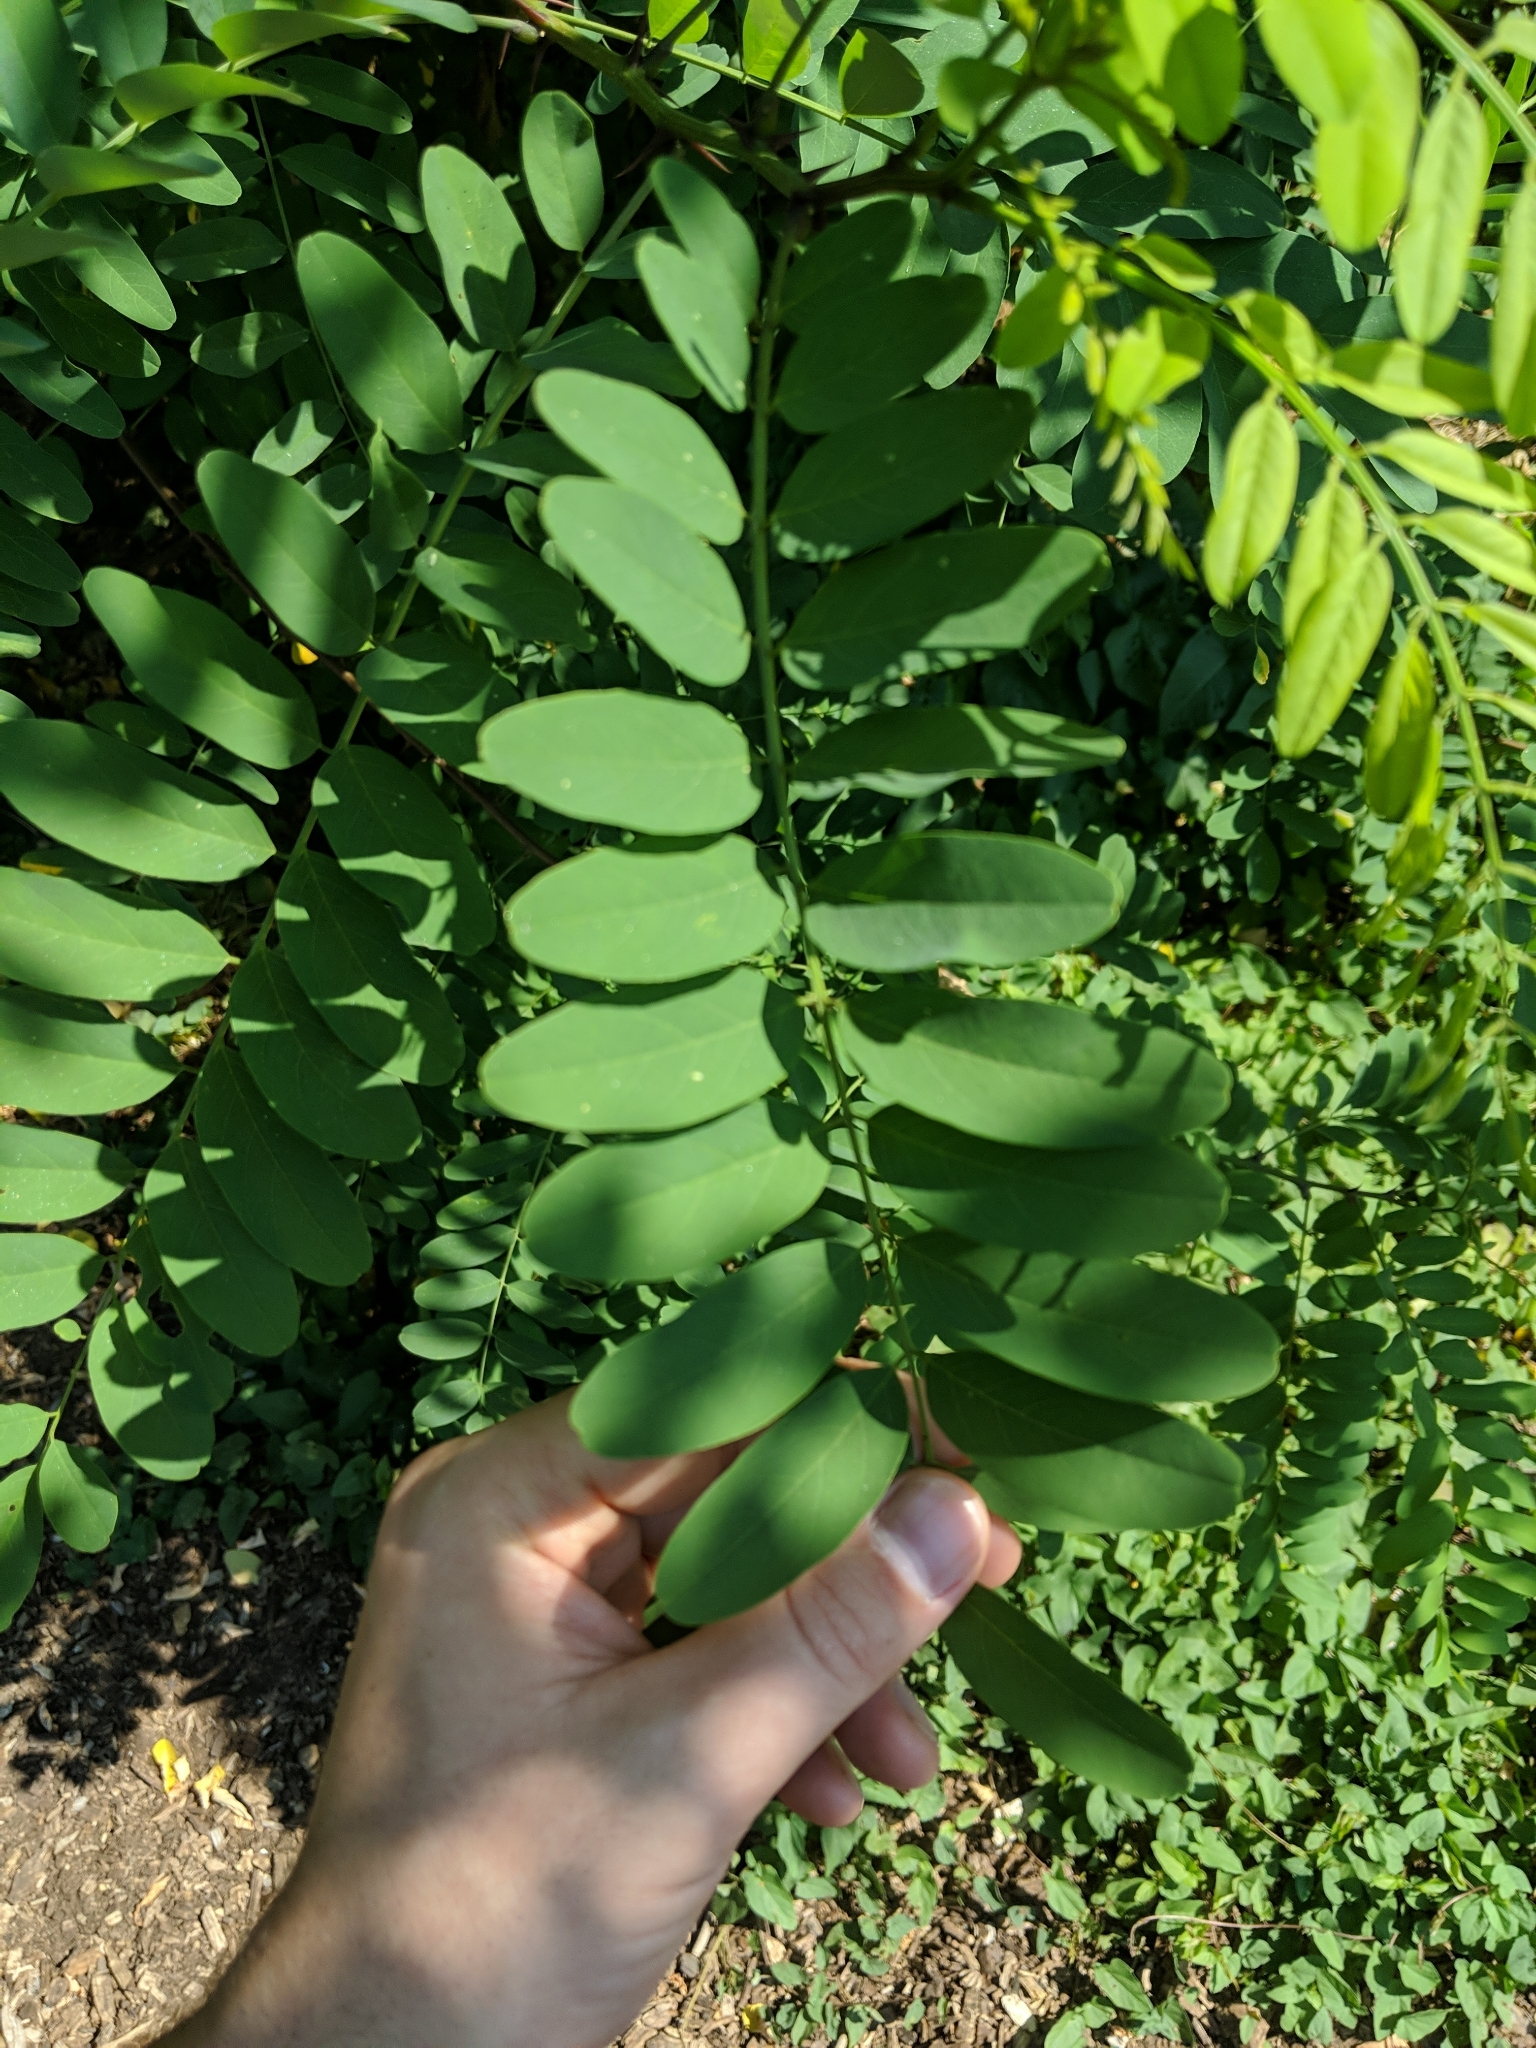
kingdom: Plantae
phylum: Tracheophyta
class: Magnoliopsida
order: Fabales
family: Fabaceae
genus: Robinia
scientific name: Robinia pseudoacacia
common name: Black locust
